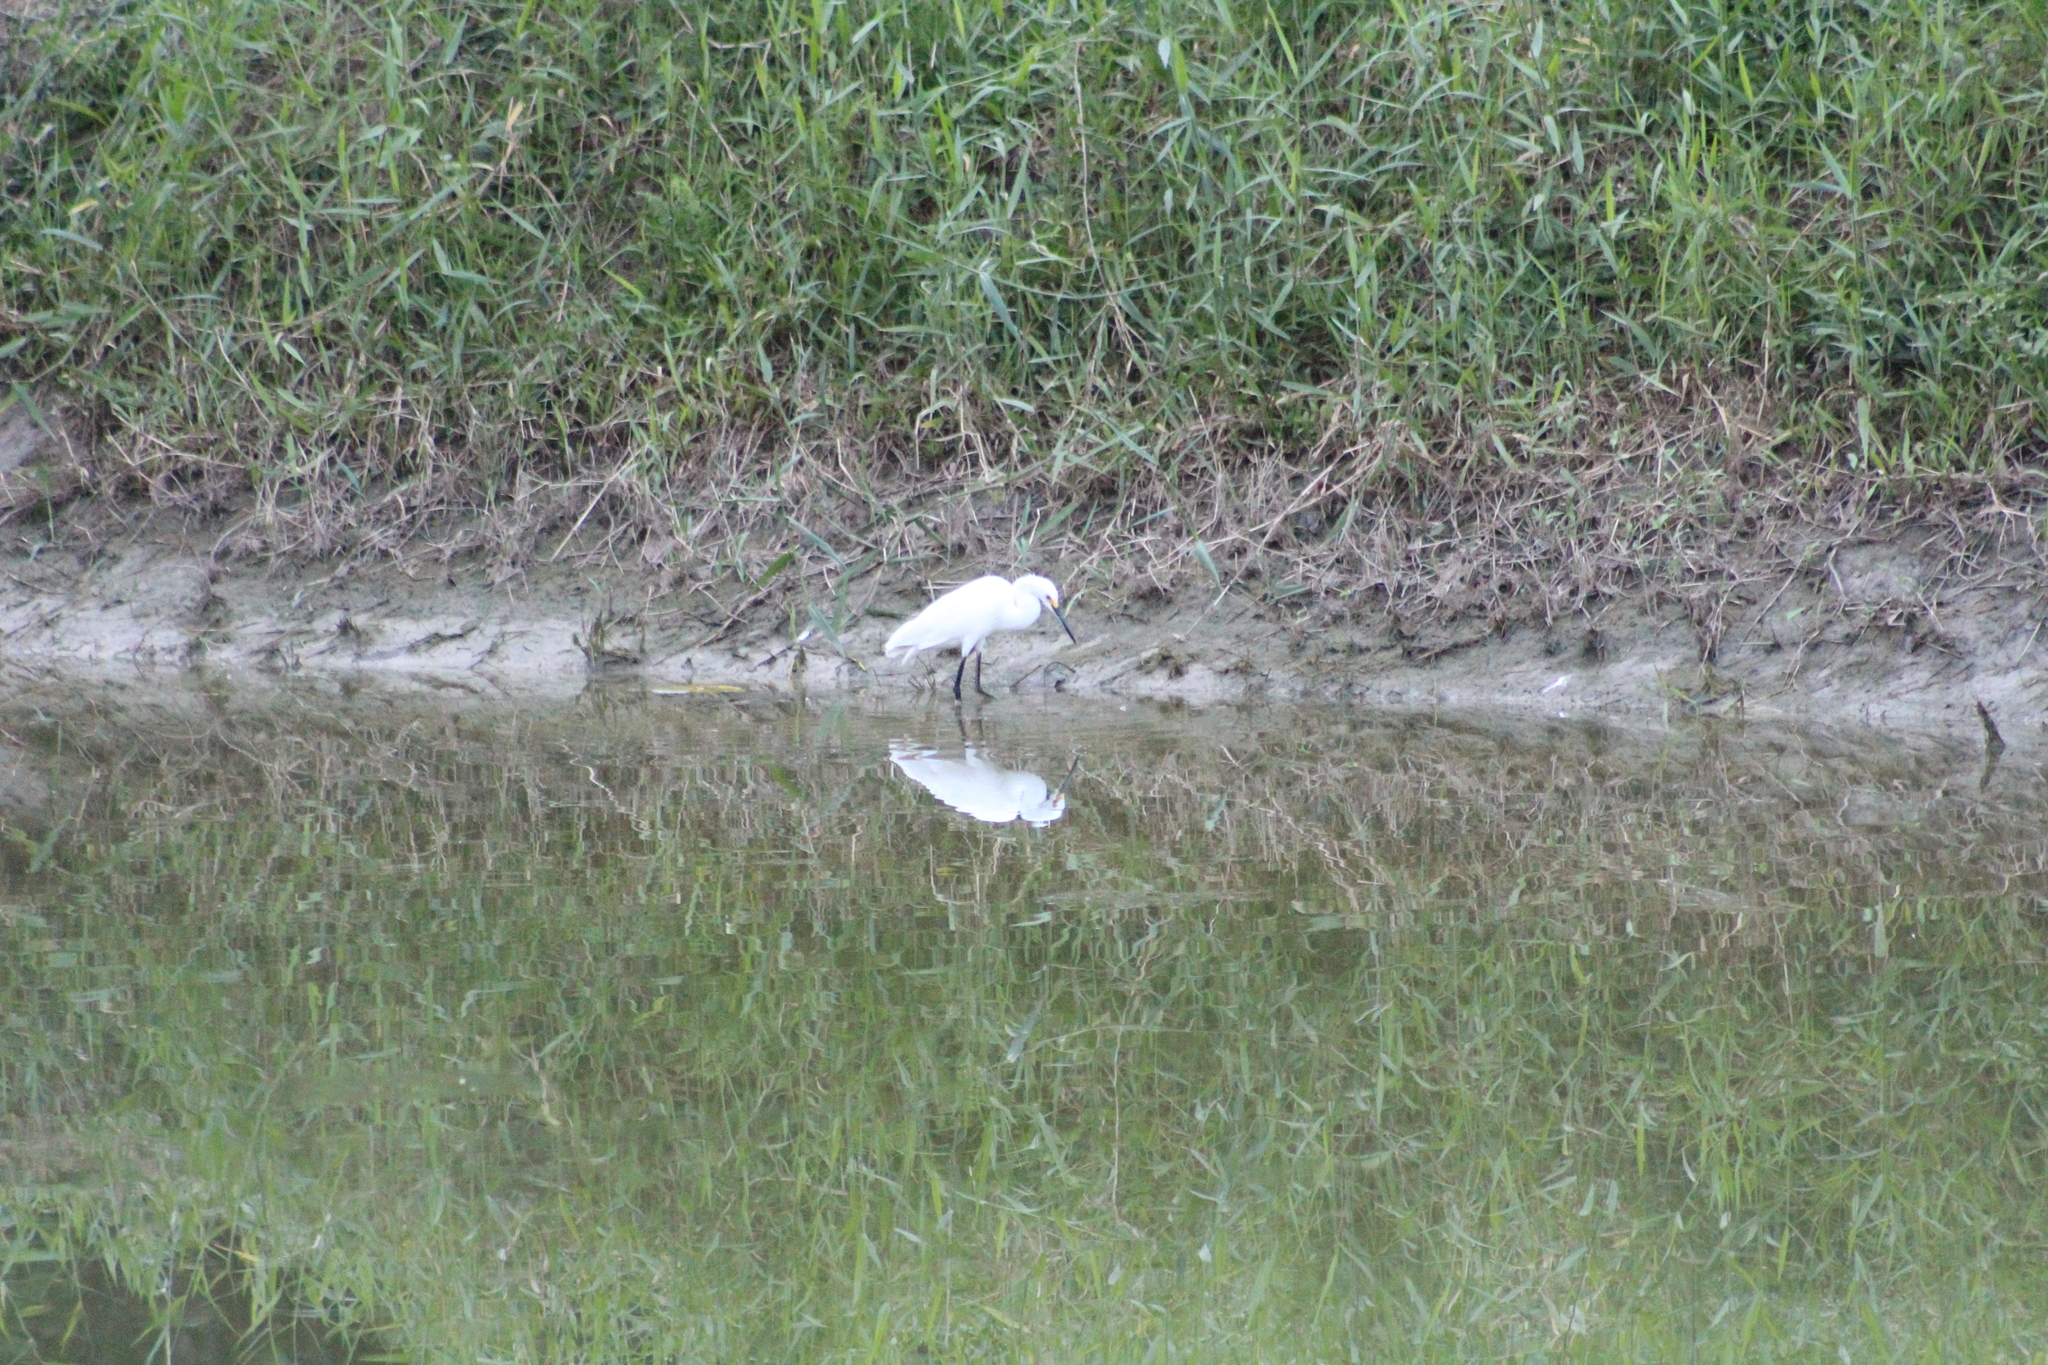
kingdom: Animalia
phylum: Chordata
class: Aves
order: Pelecaniformes
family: Ardeidae
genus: Egretta
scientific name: Egretta thula
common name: Snowy egret
